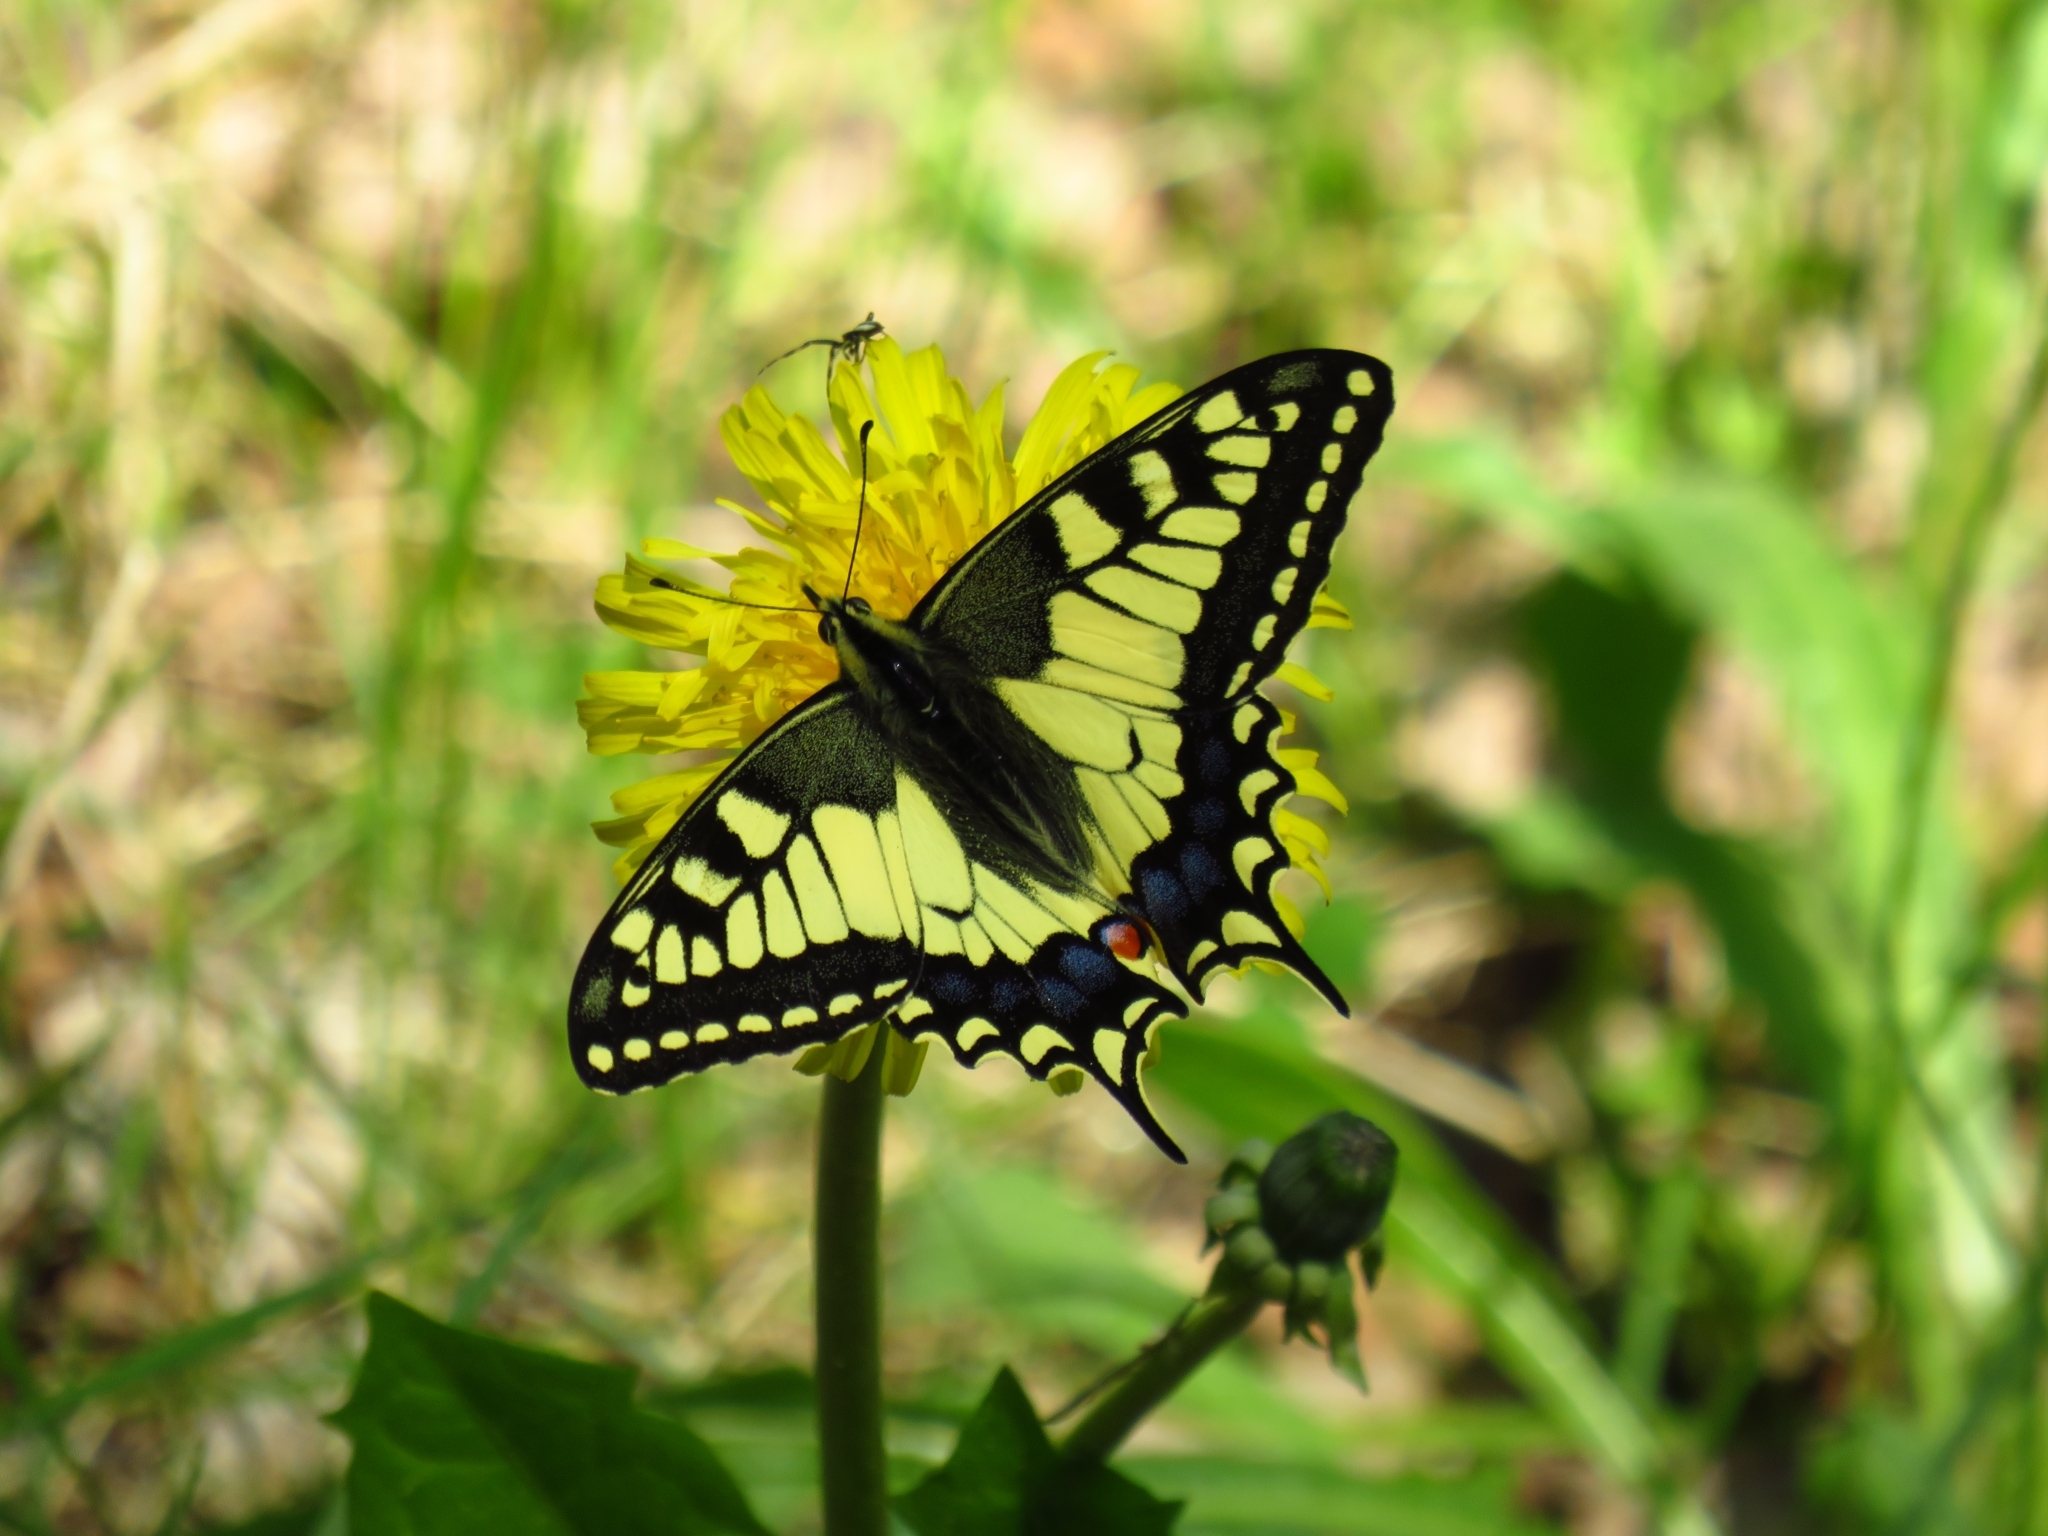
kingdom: Animalia
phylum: Arthropoda
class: Insecta
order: Lepidoptera
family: Papilionidae
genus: Papilio
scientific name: Papilio machaon
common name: Swallowtail
